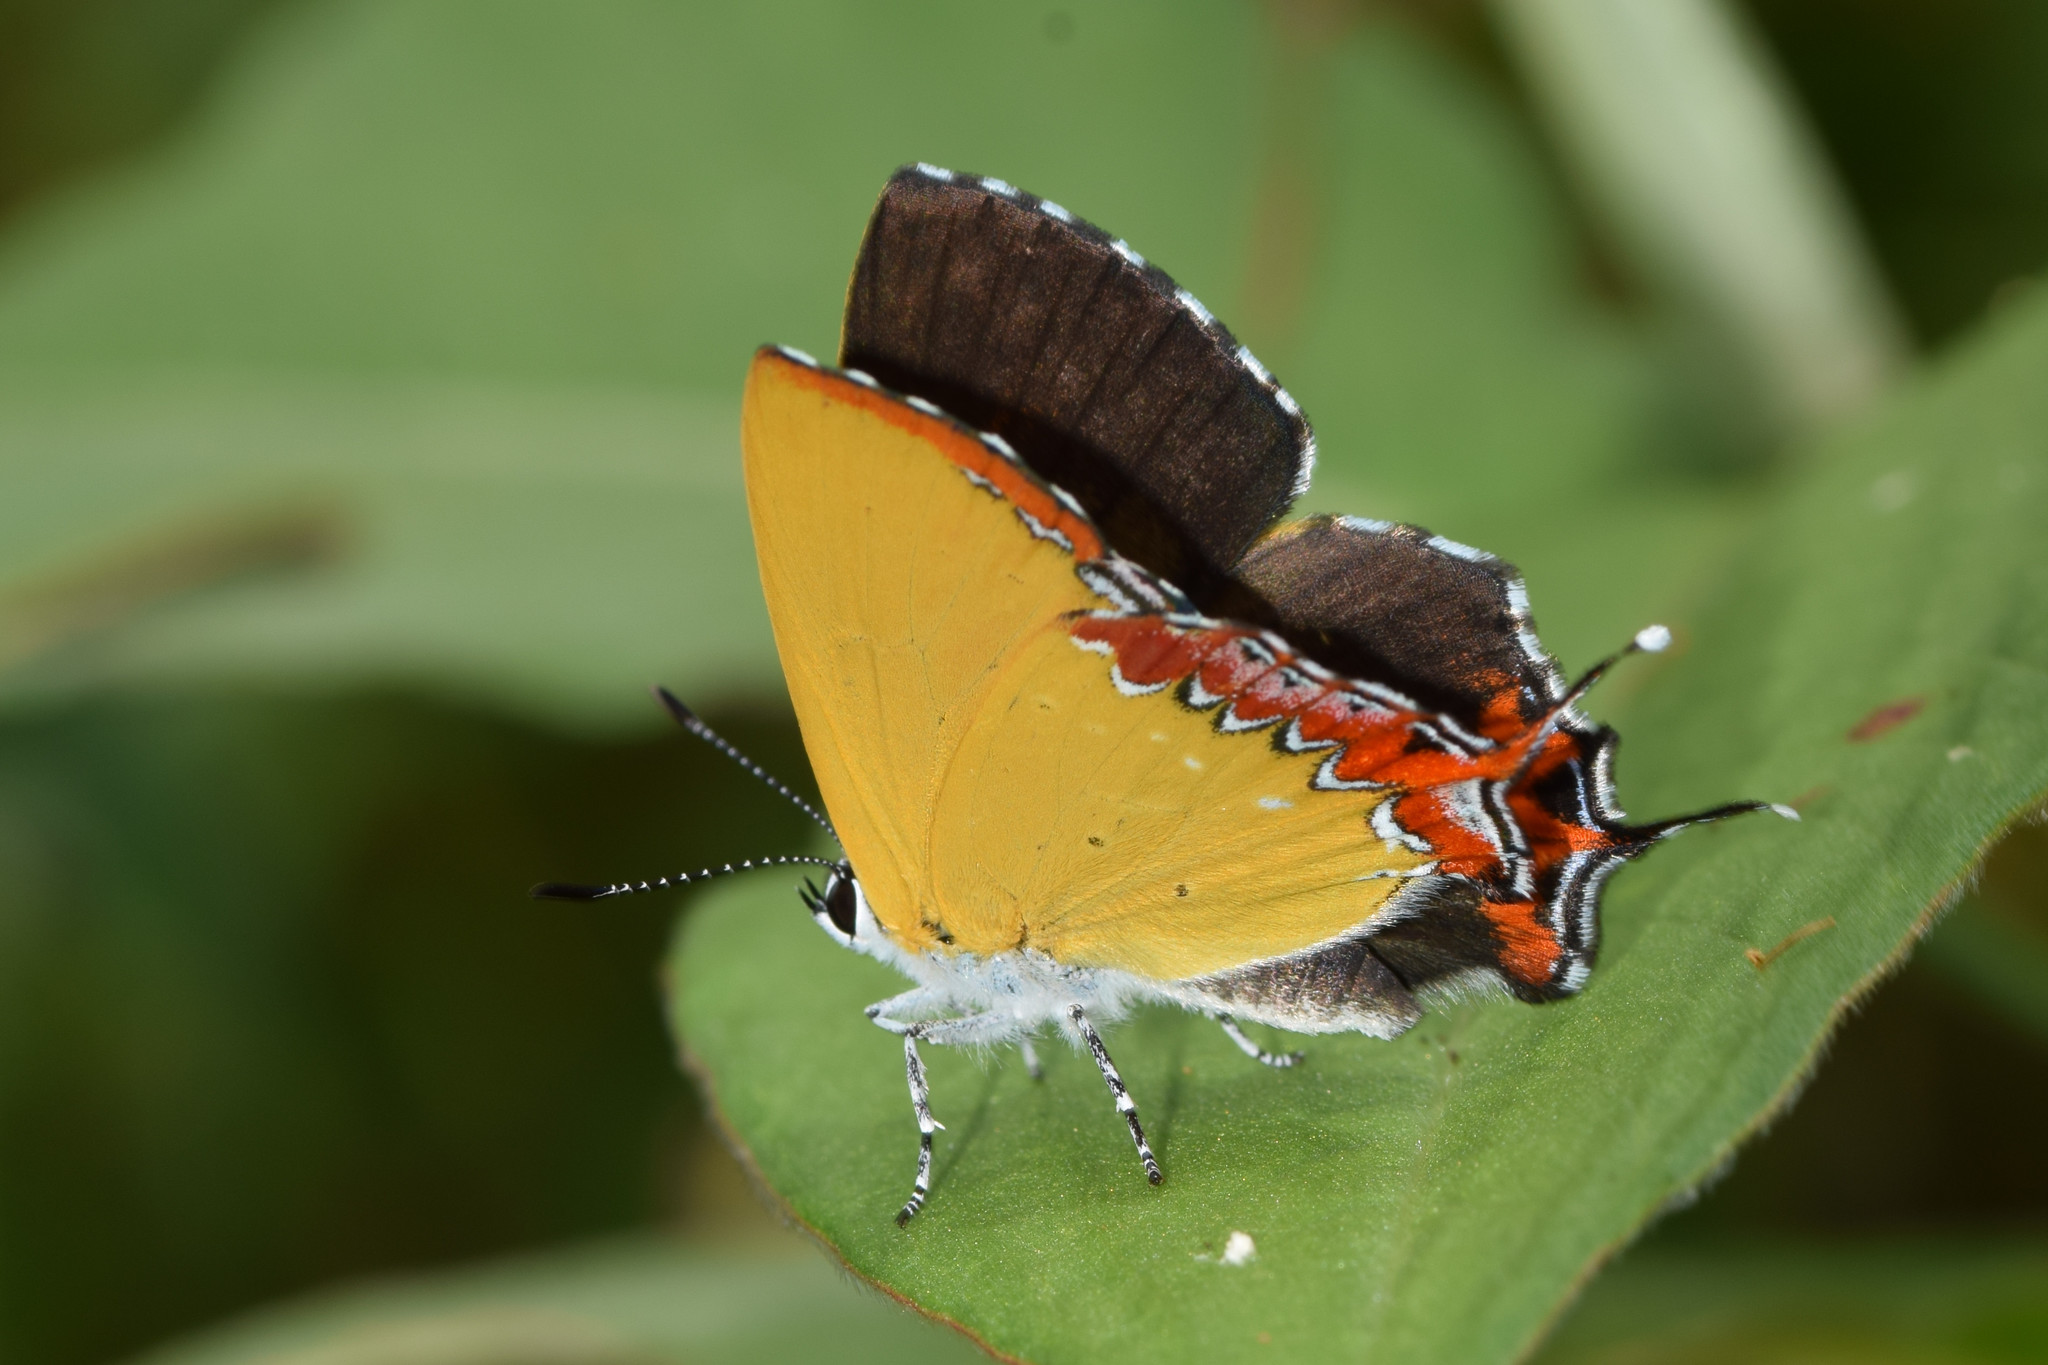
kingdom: Animalia
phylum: Arthropoda
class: Insecta
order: Lepidoptera
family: Lycaenidae
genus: Heliophorus
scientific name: Heliophorus epicles
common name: Purple sapphire
